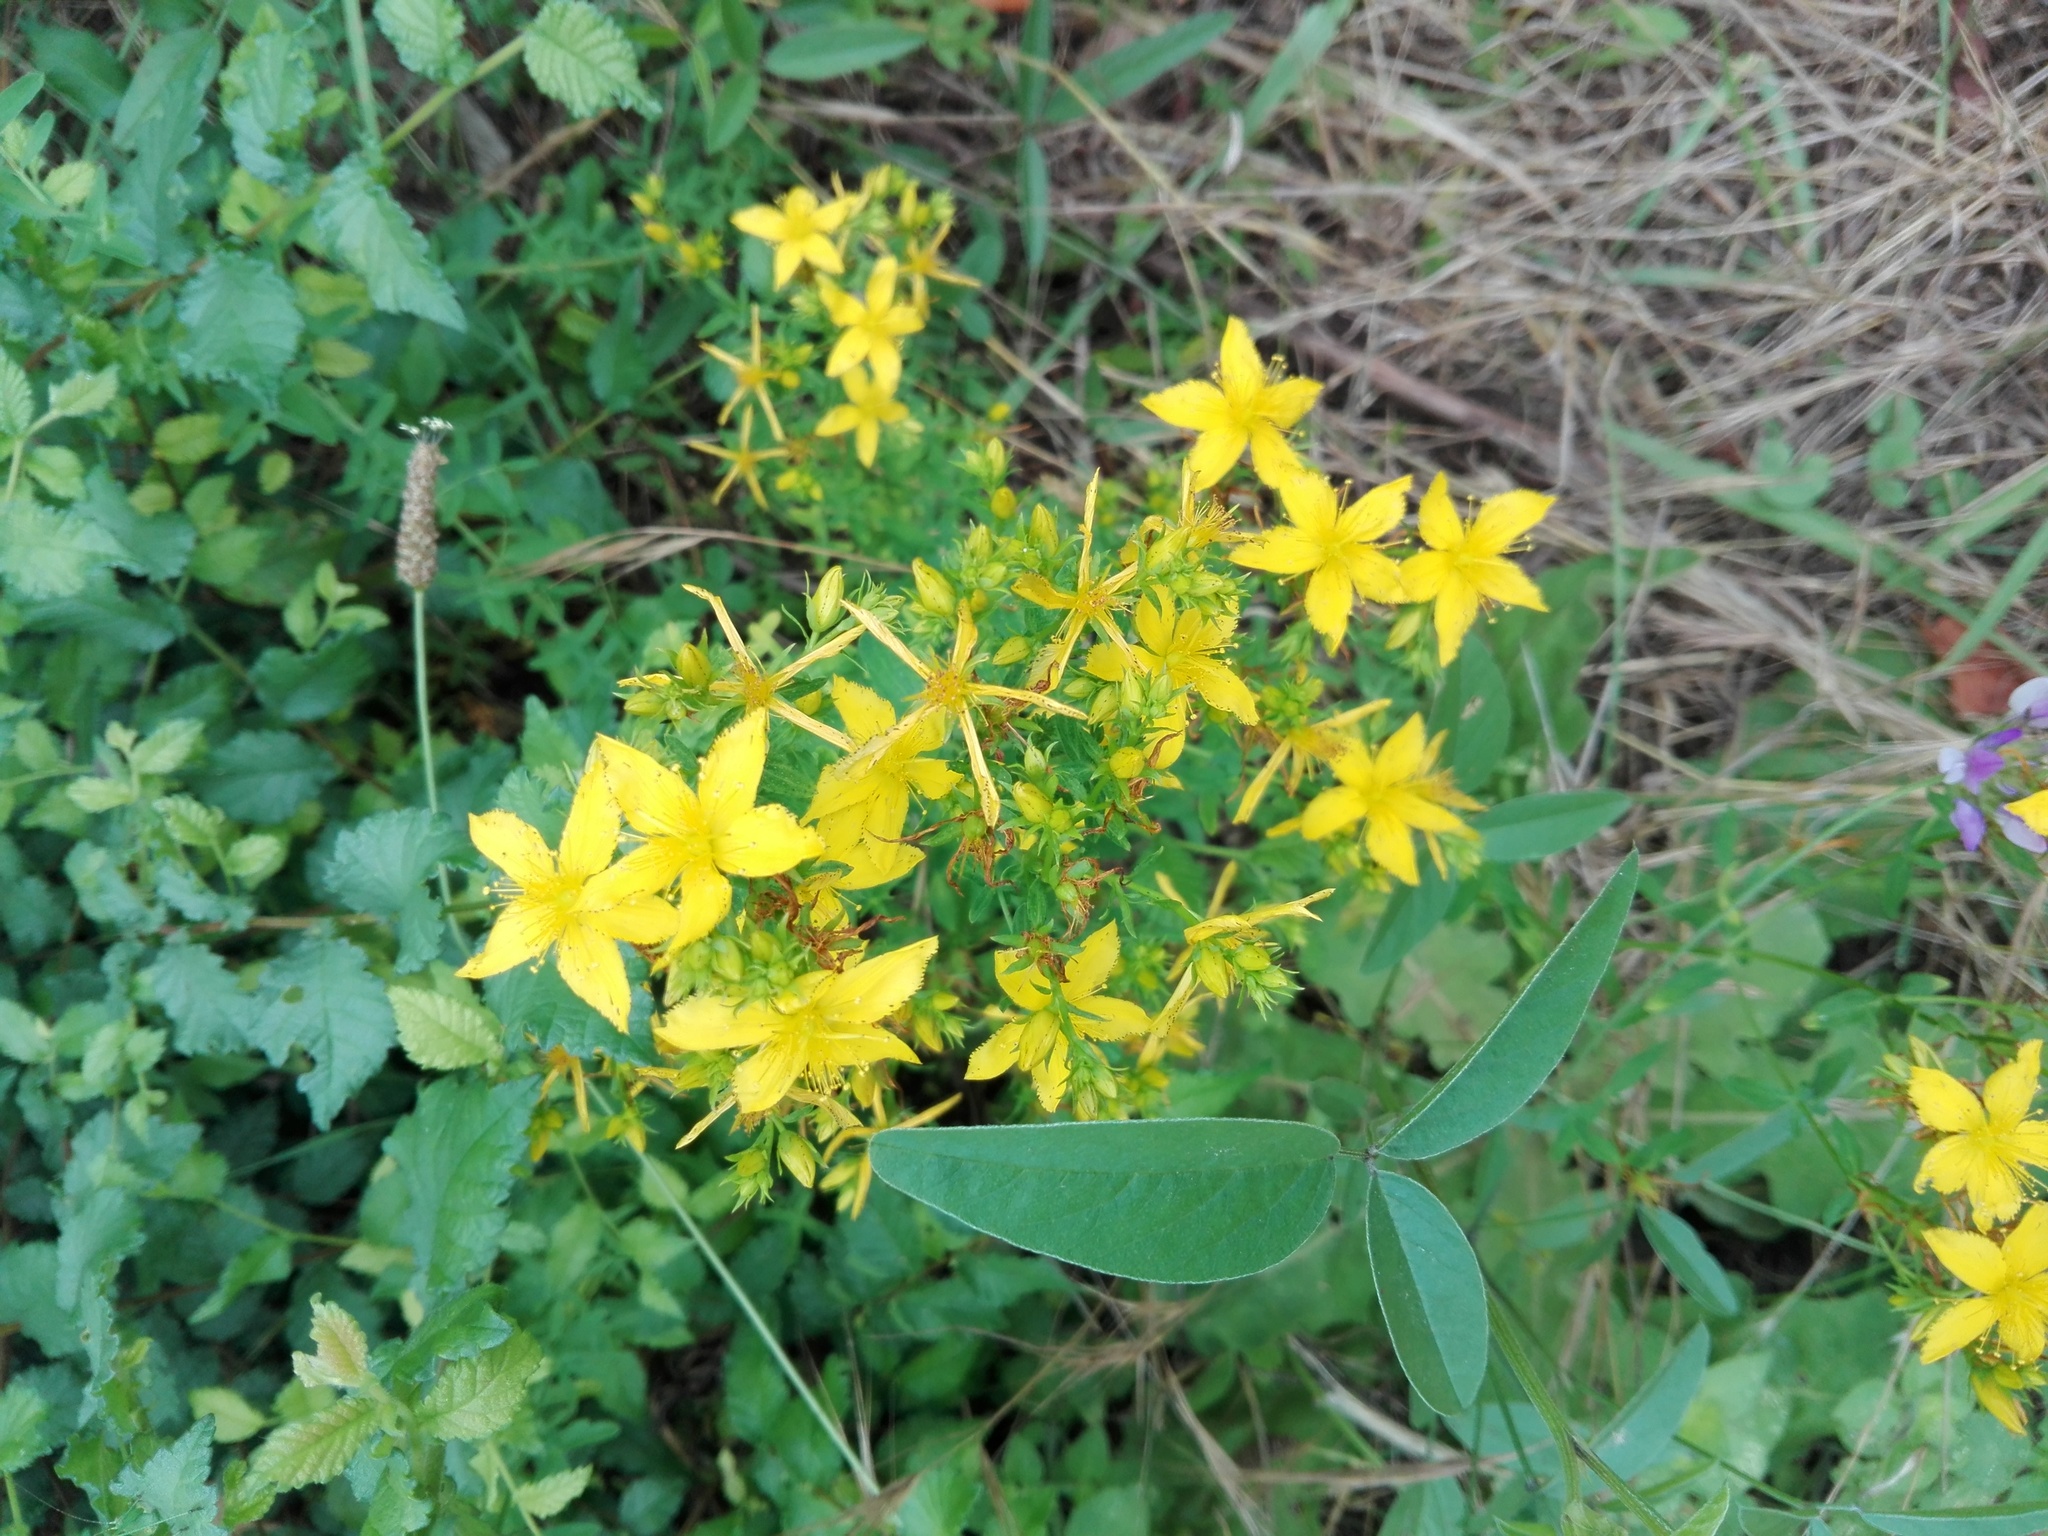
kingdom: Plantae
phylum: Tracheophyta
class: Magnoliopsida
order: Malpighiales
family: Hypericaceae
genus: Hypericum
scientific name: Hypericum perforatum
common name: Common st. johnswort
